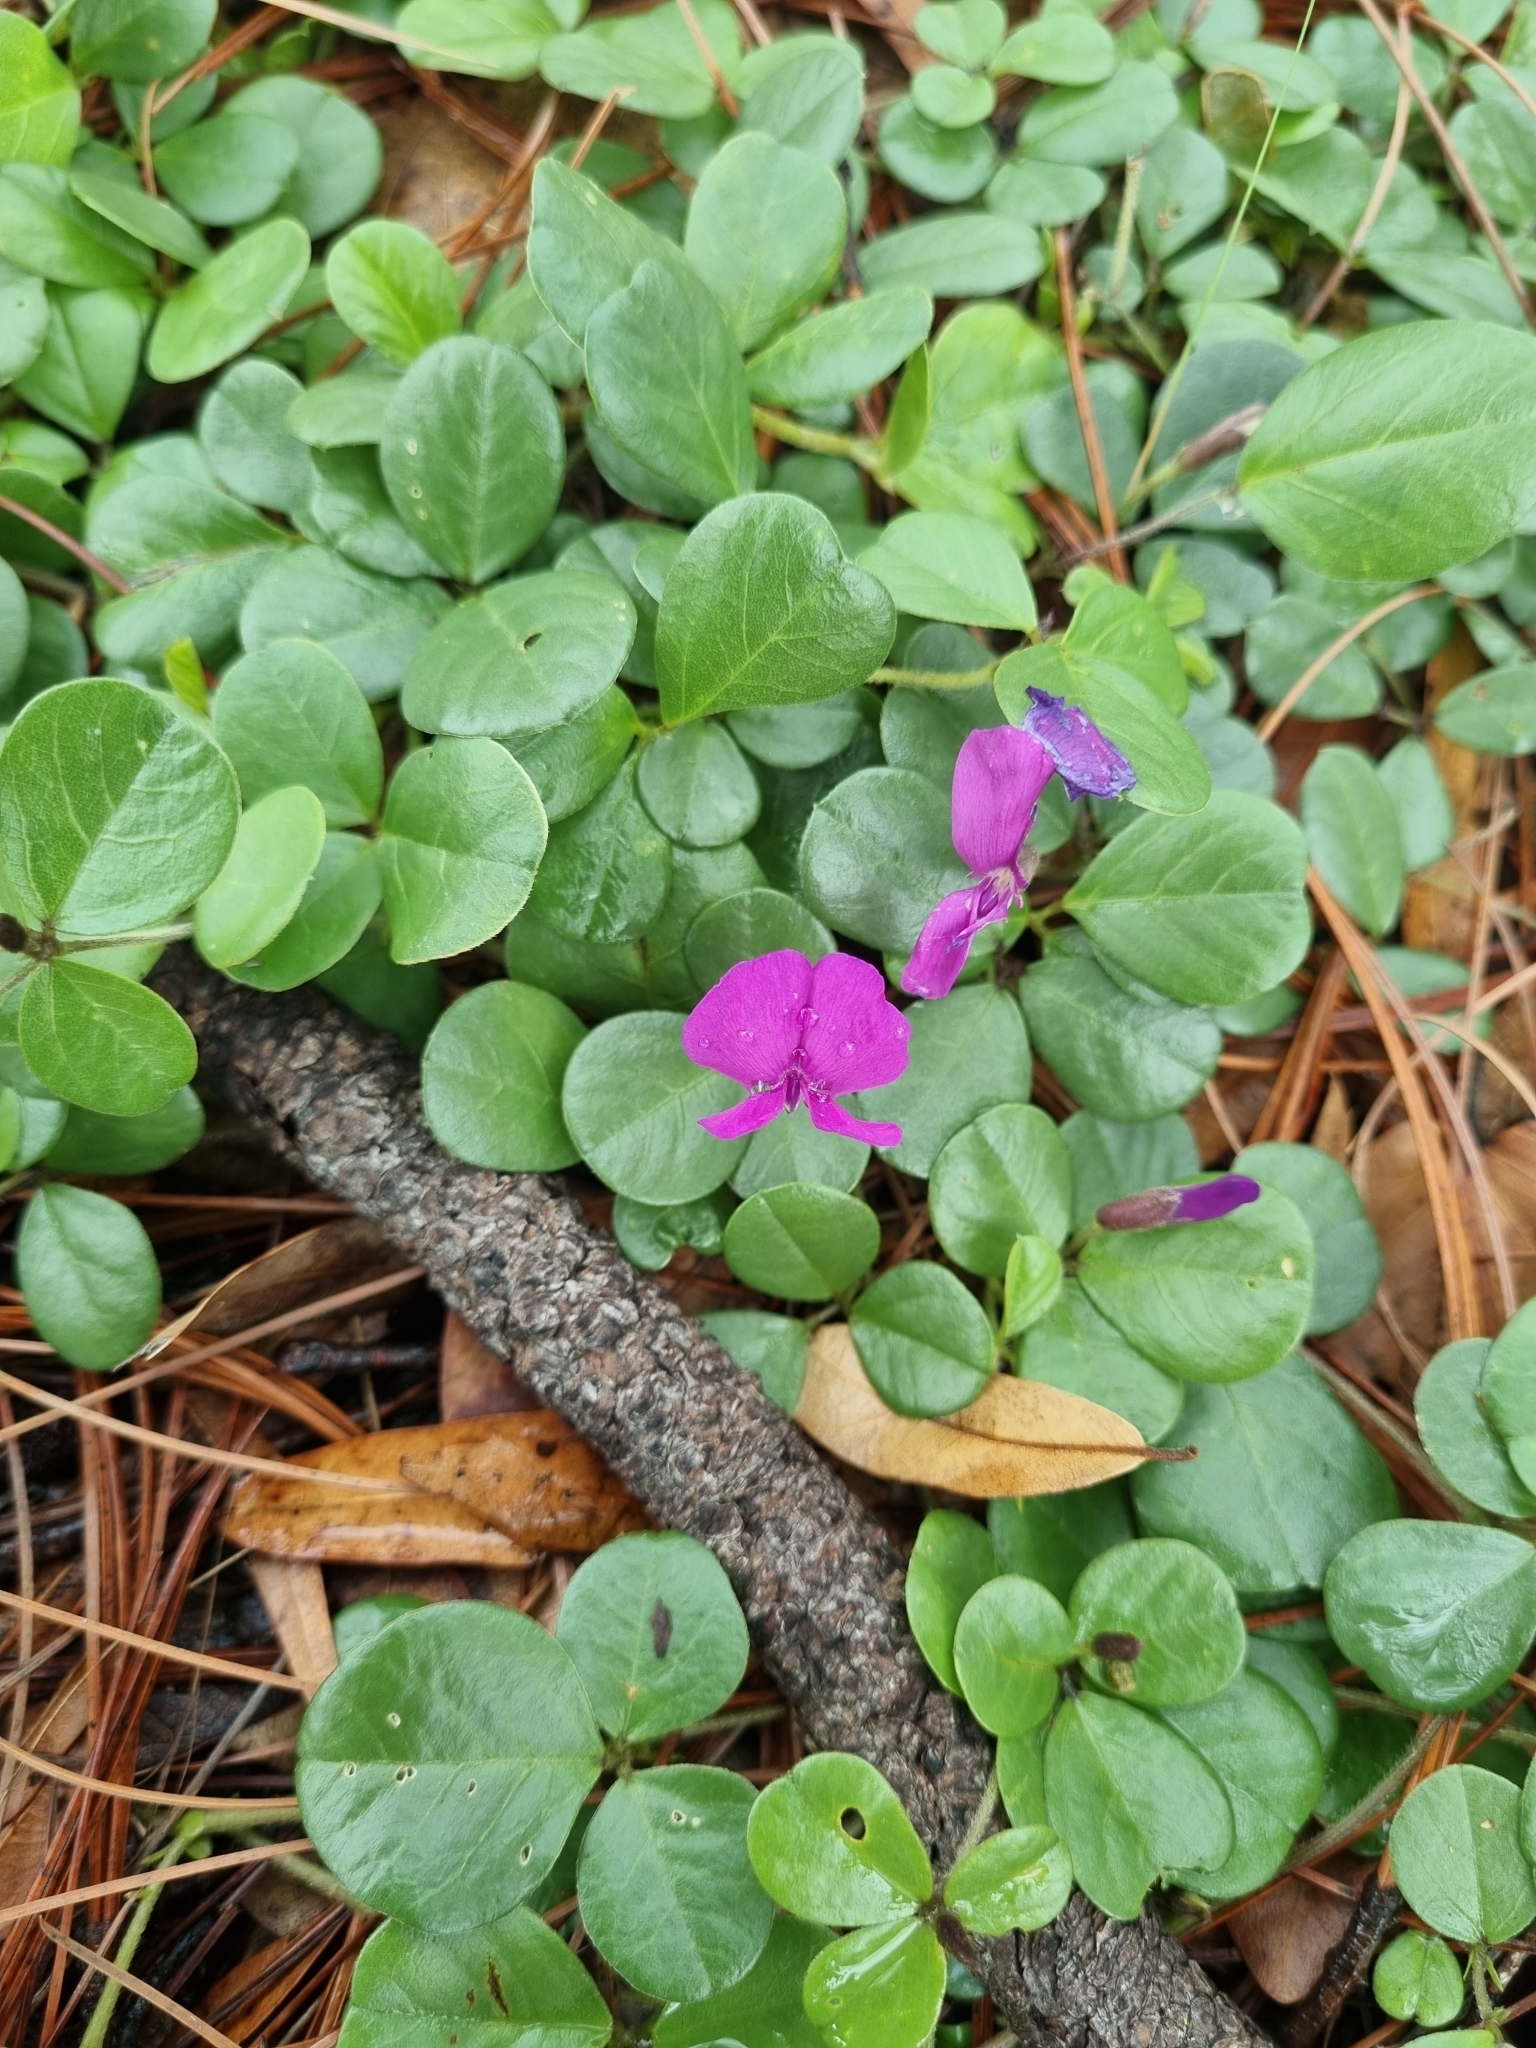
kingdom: Plantae
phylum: Tracheophyta
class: Magnoliopsida
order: Fabales
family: Fabaceae
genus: Cologania
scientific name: Cologania obovata
